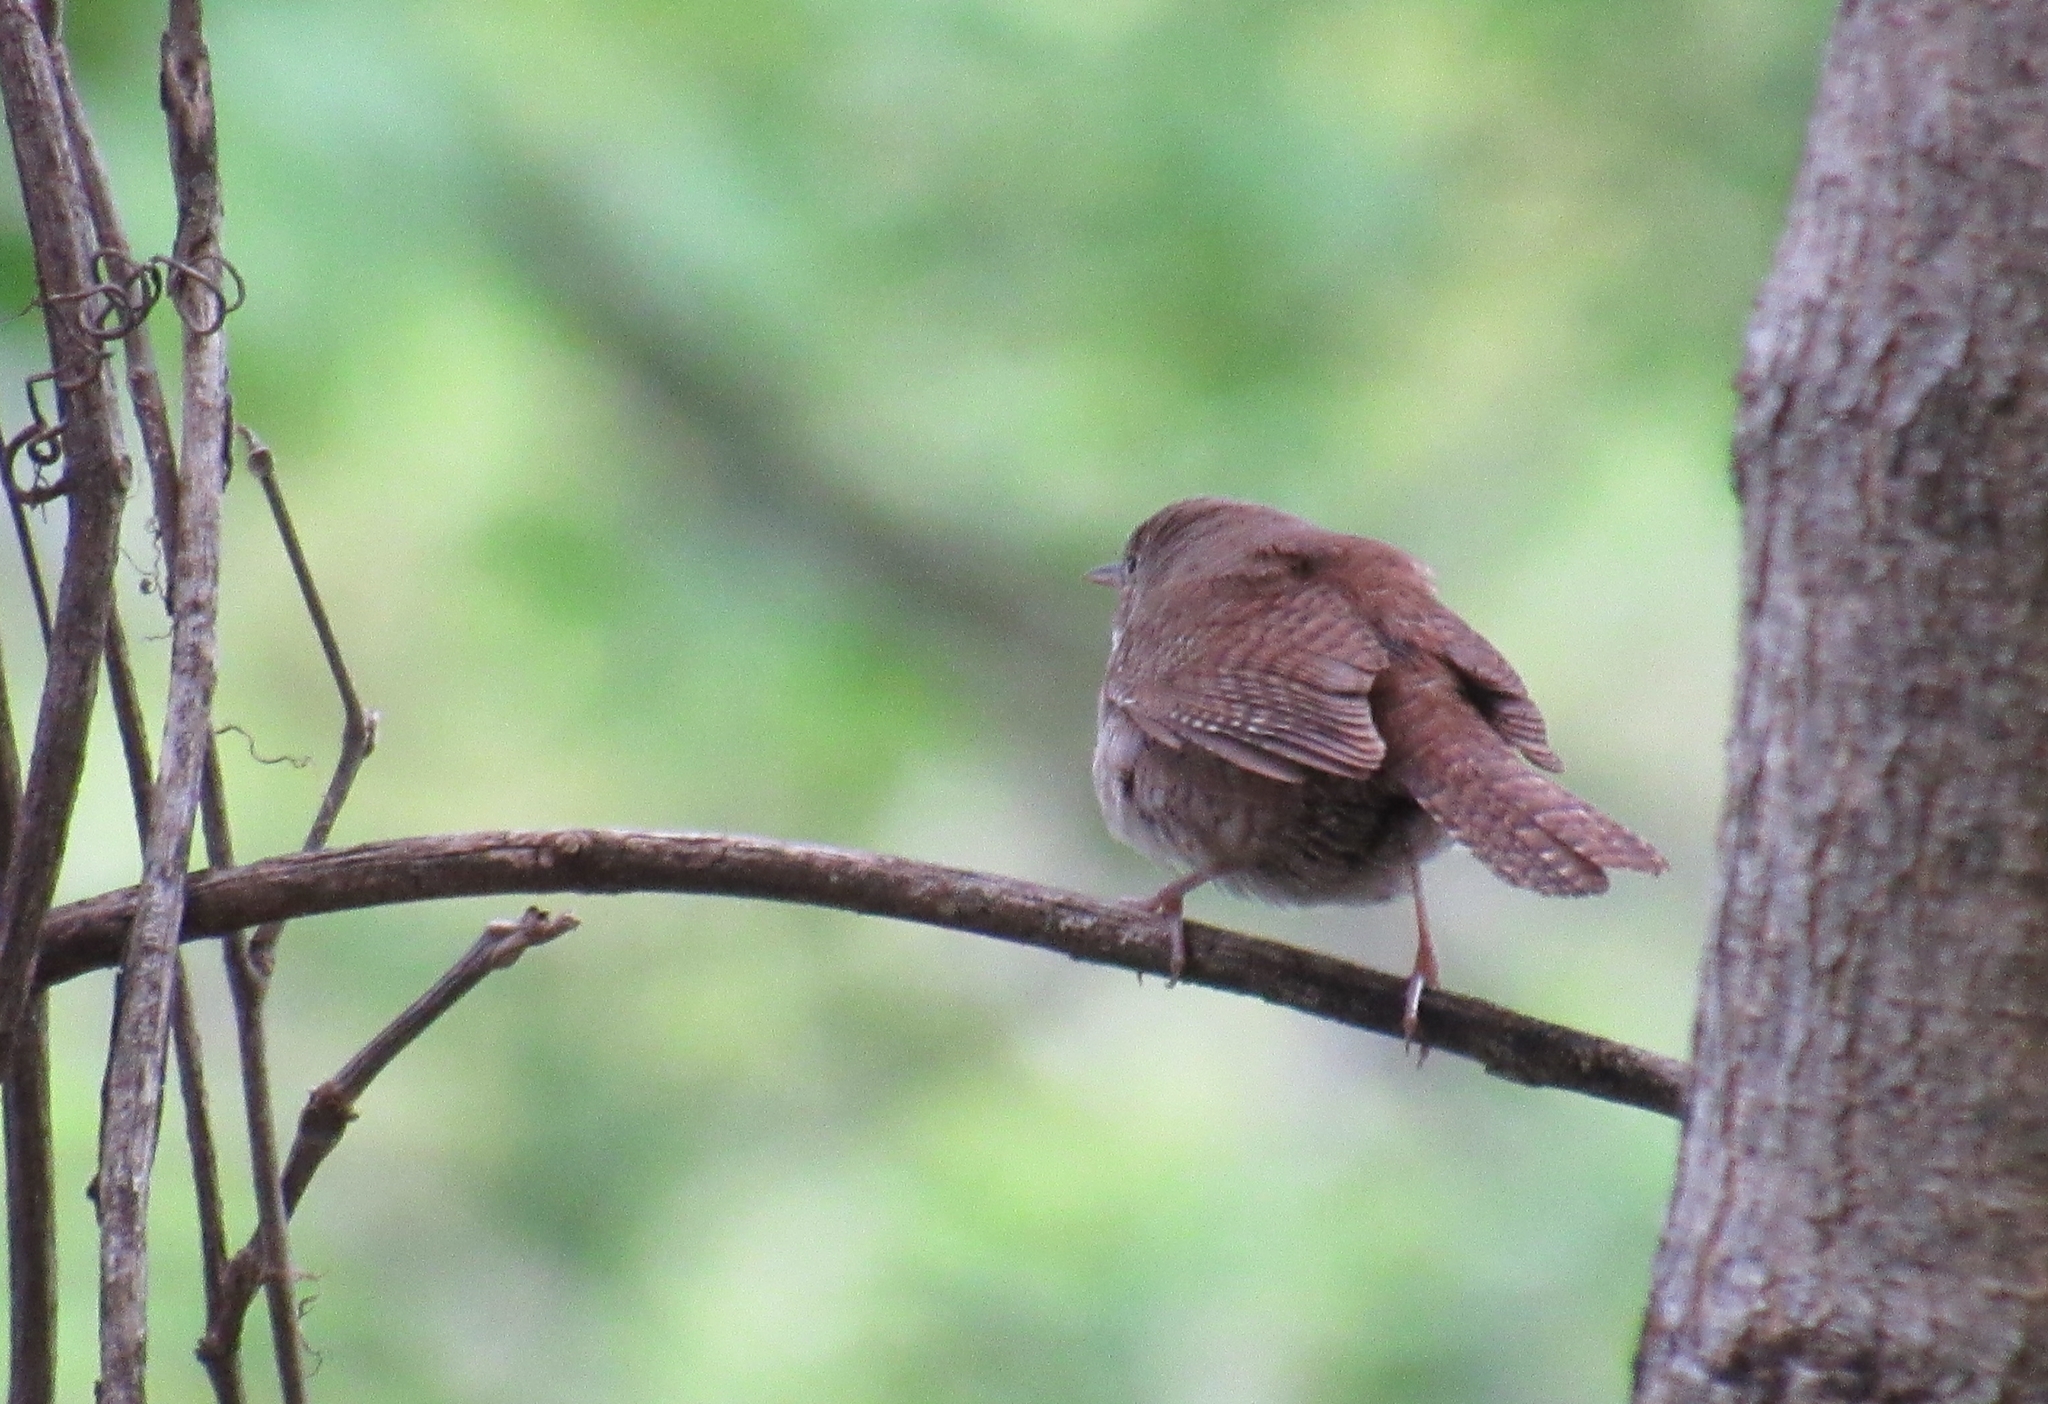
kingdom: Animalia
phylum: Chordata
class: Aves
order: Passeriformes
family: Troglodytidae
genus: Troglodytes
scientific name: Troglodytes aedon
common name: House wren
